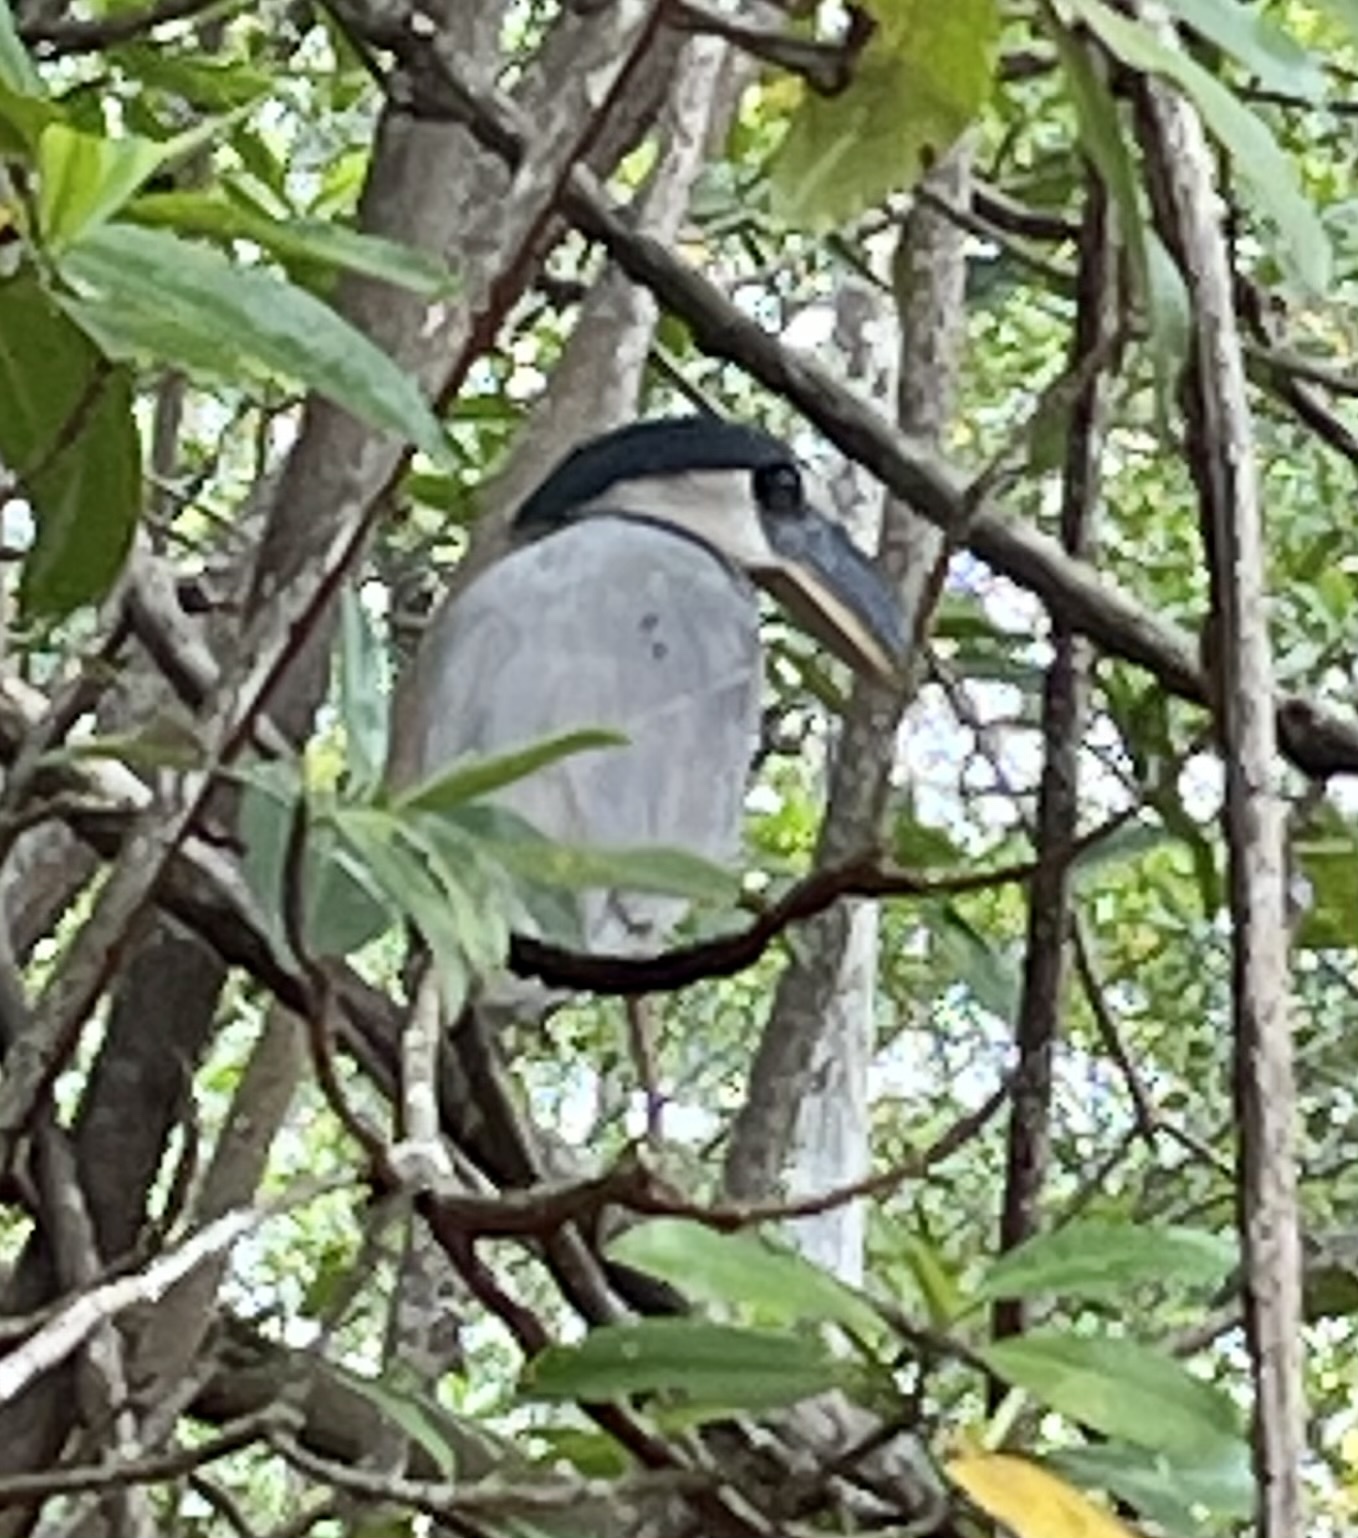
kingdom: Animalia
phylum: Chordata
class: Aves
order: Pelecaniformes
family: Ardeidae
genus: Cochlearius
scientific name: Cochlearius cochlearius
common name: Boat-billed heron
